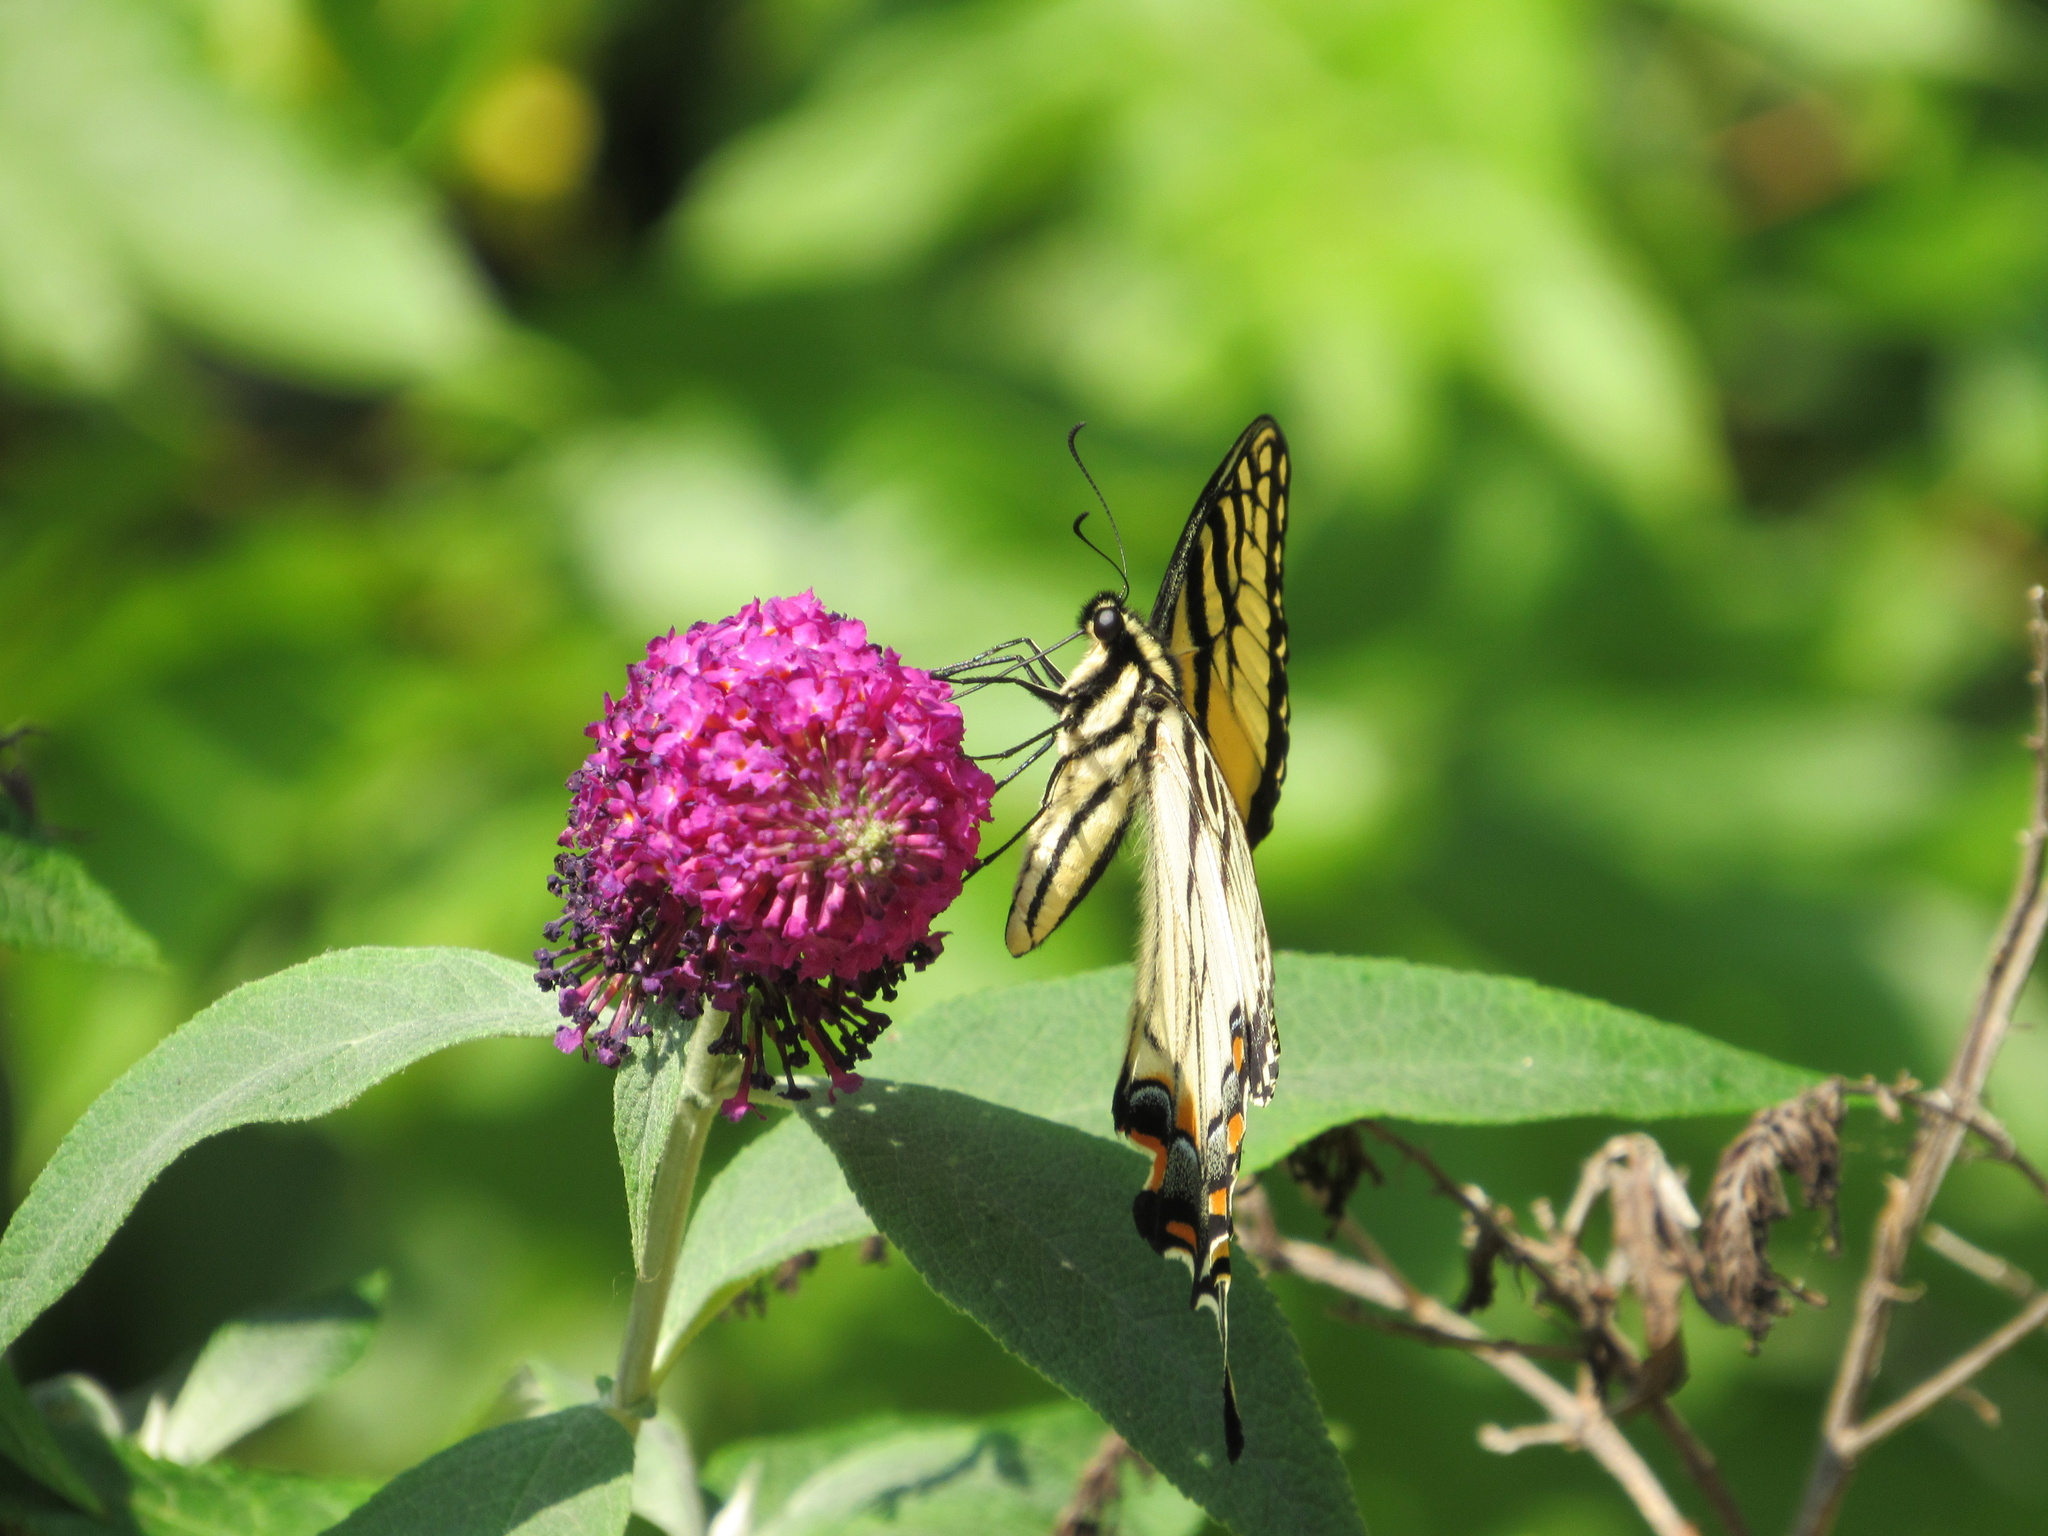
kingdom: Animalia
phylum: Arthropoda
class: Insecta
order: Lepidoptera
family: Papilionidae
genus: Papilio
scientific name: Papilio glaucus
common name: Tiger swallowtail
